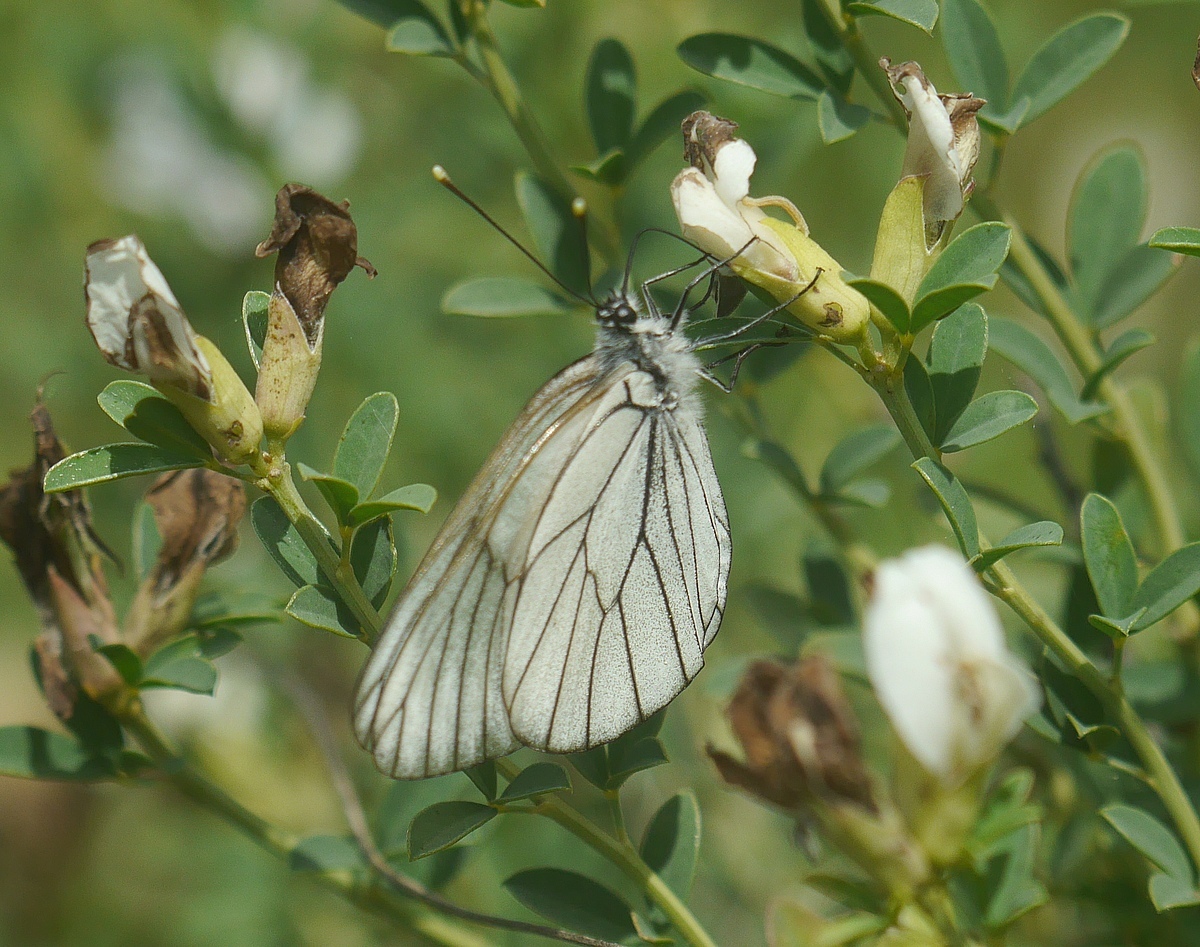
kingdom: Animalia
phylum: Arthropoda
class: Insecta
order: Lepidoptera
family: Pieridae
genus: Aporia
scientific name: Aporia crataegi
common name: Black-veined white
